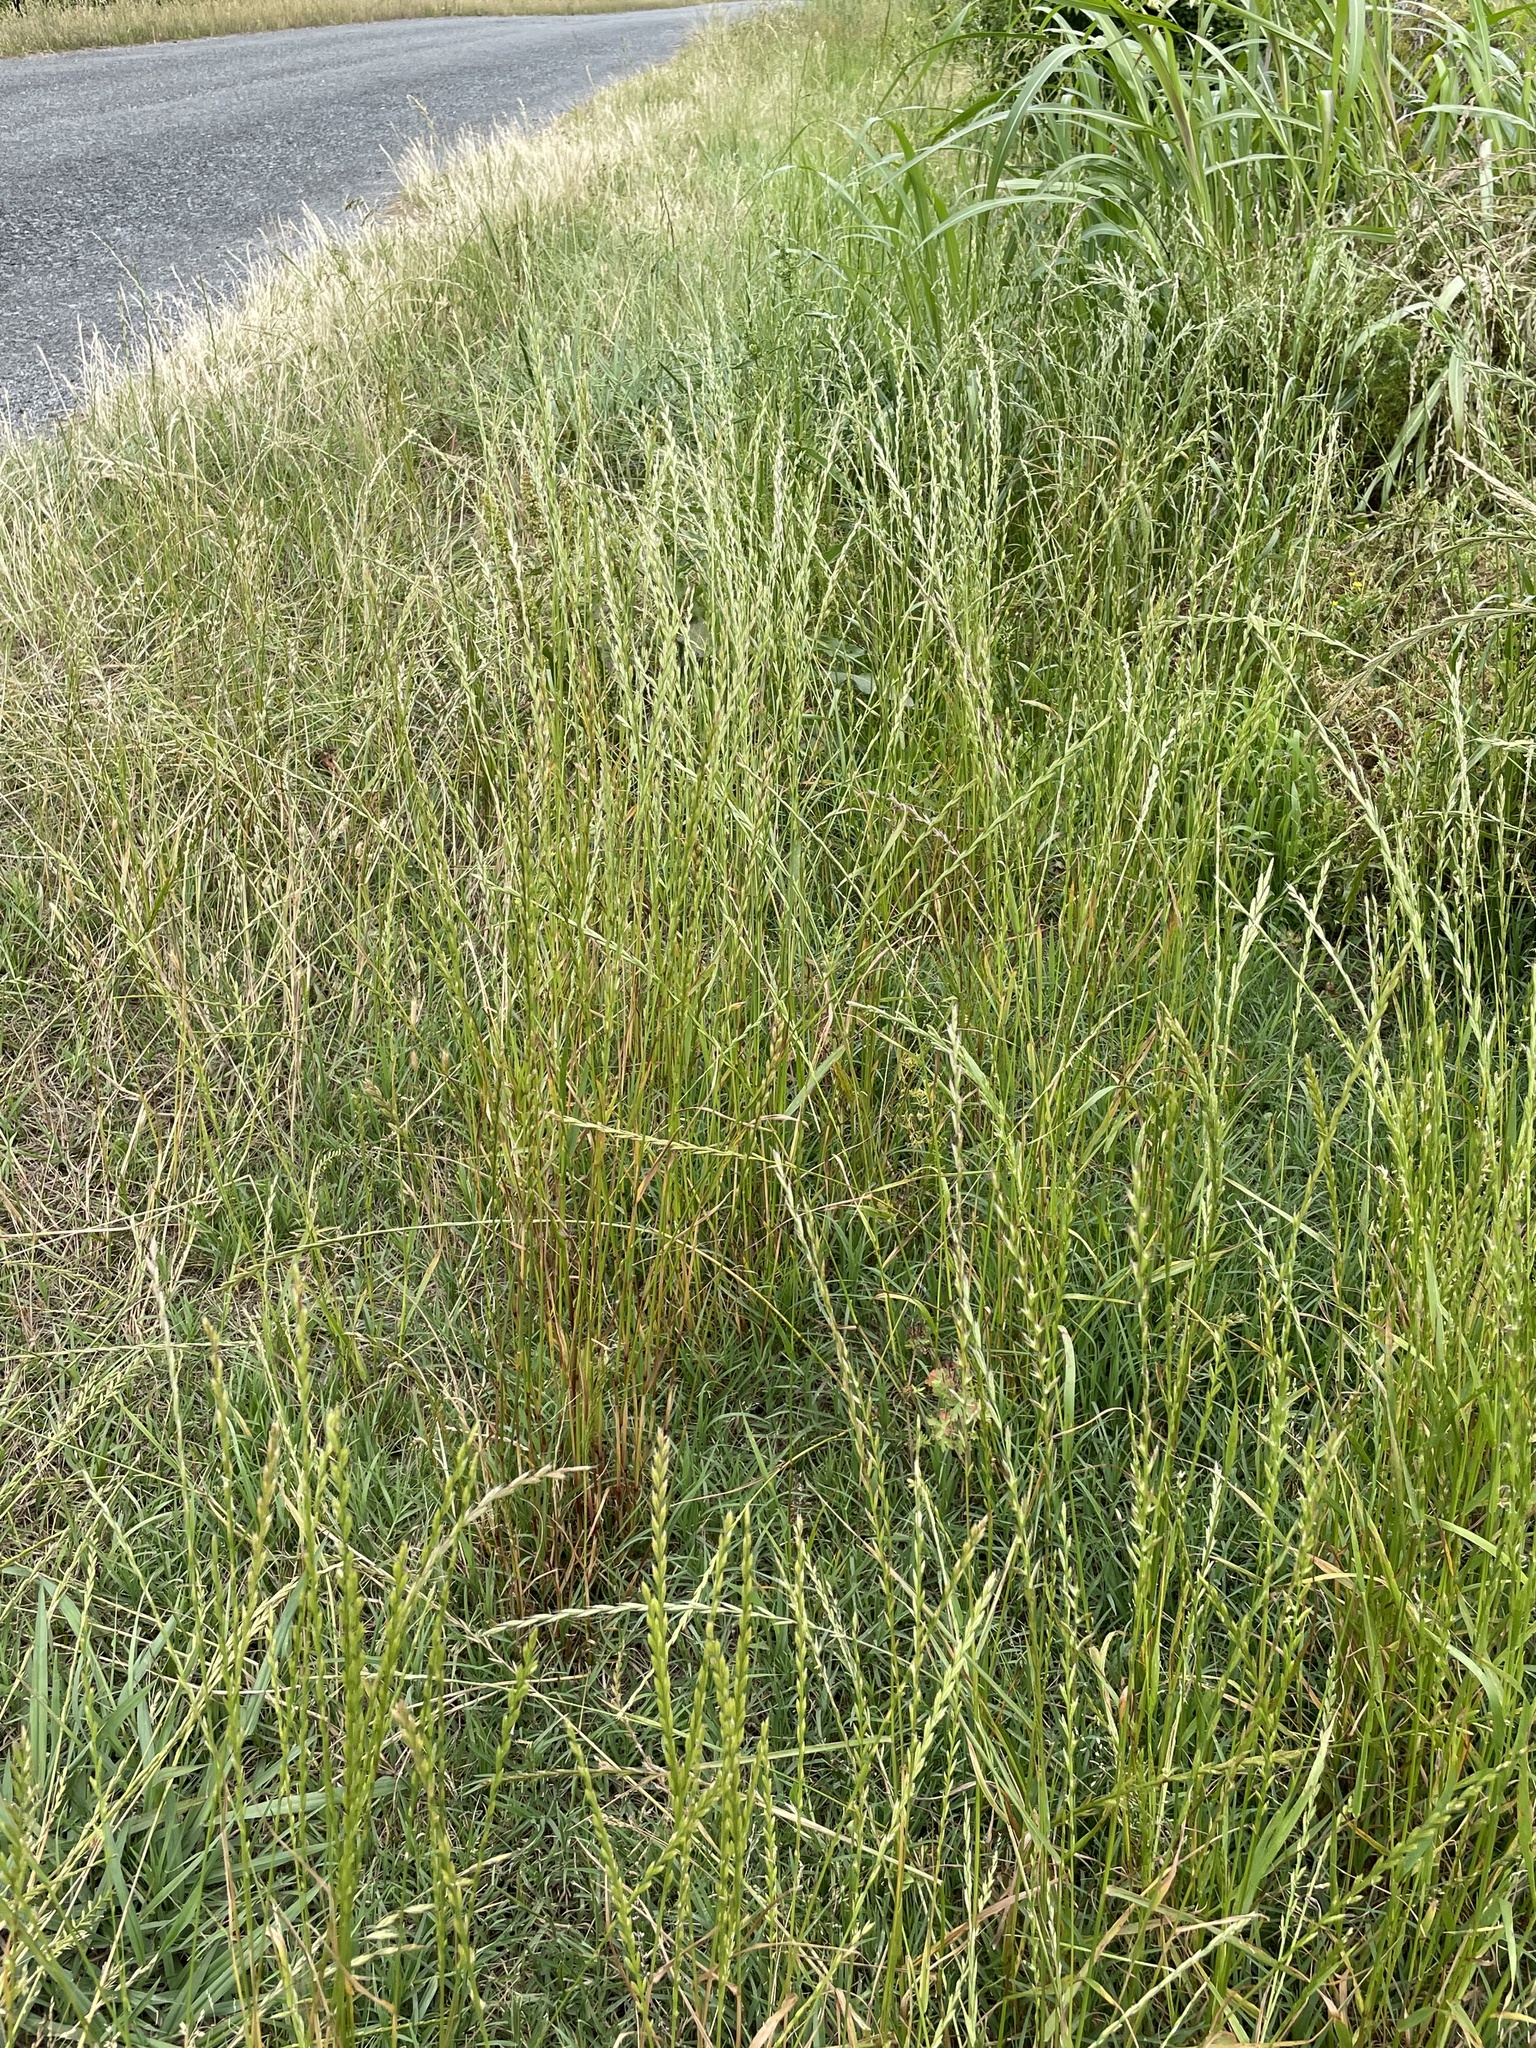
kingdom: Plantae
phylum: Tracheophyta
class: Liliopsida
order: Poales
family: Poaceae
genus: Lolium
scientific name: Lolium multiflorum
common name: Annual ryegrass
